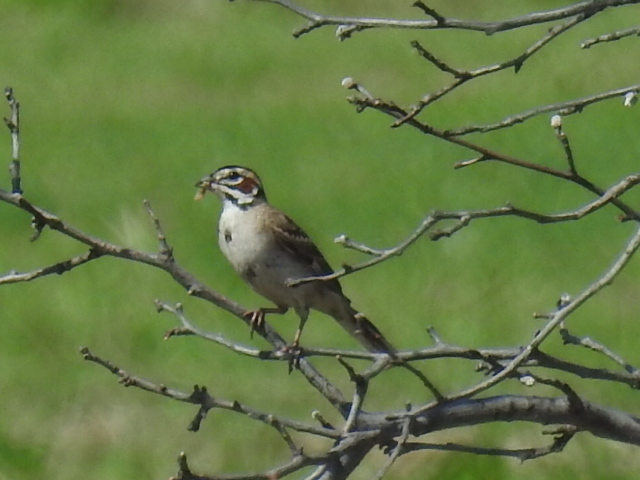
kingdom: Animalia
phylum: Chordata
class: Aves
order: Passeriformes
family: Passerellidae
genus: Chondestes
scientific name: Chondestes grammacus
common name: Lark sparrow
